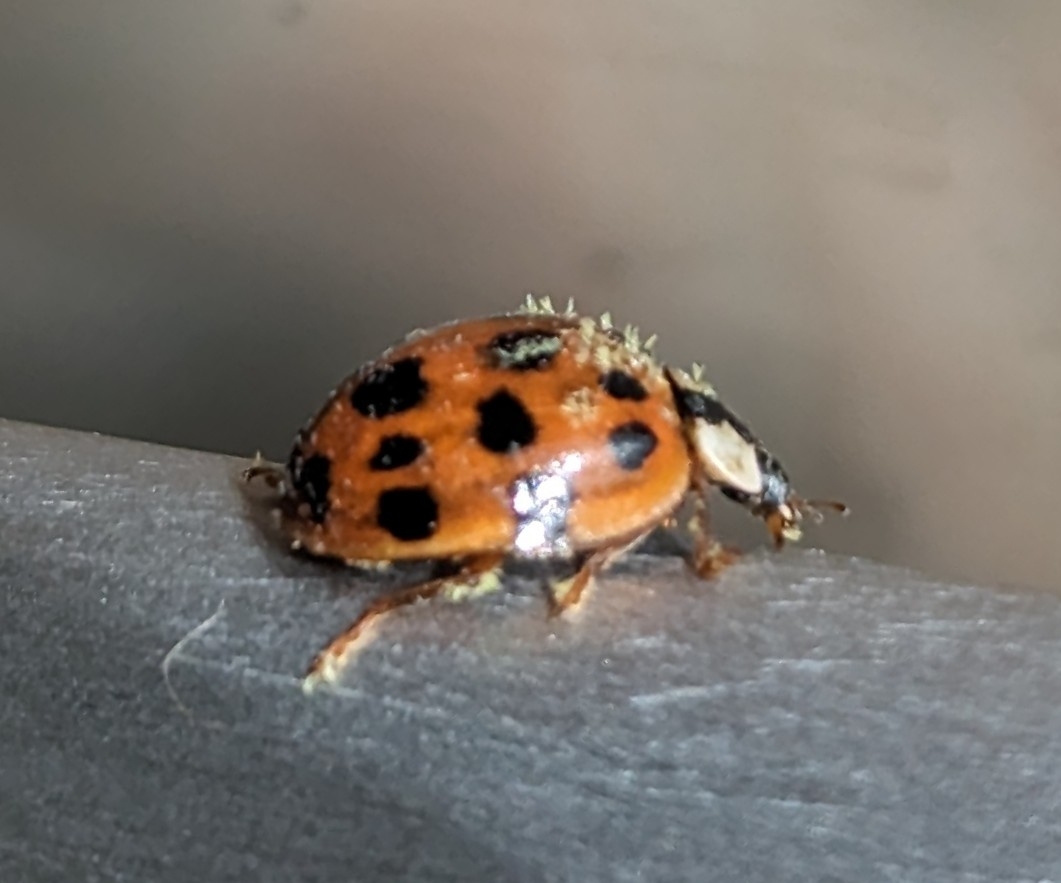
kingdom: Animalia
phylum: Arthropoda
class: Insecta
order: Coleoptera
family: Coccinellidae
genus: Harmonia
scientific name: Harmonia axyridis
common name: Harlequin ladybird
